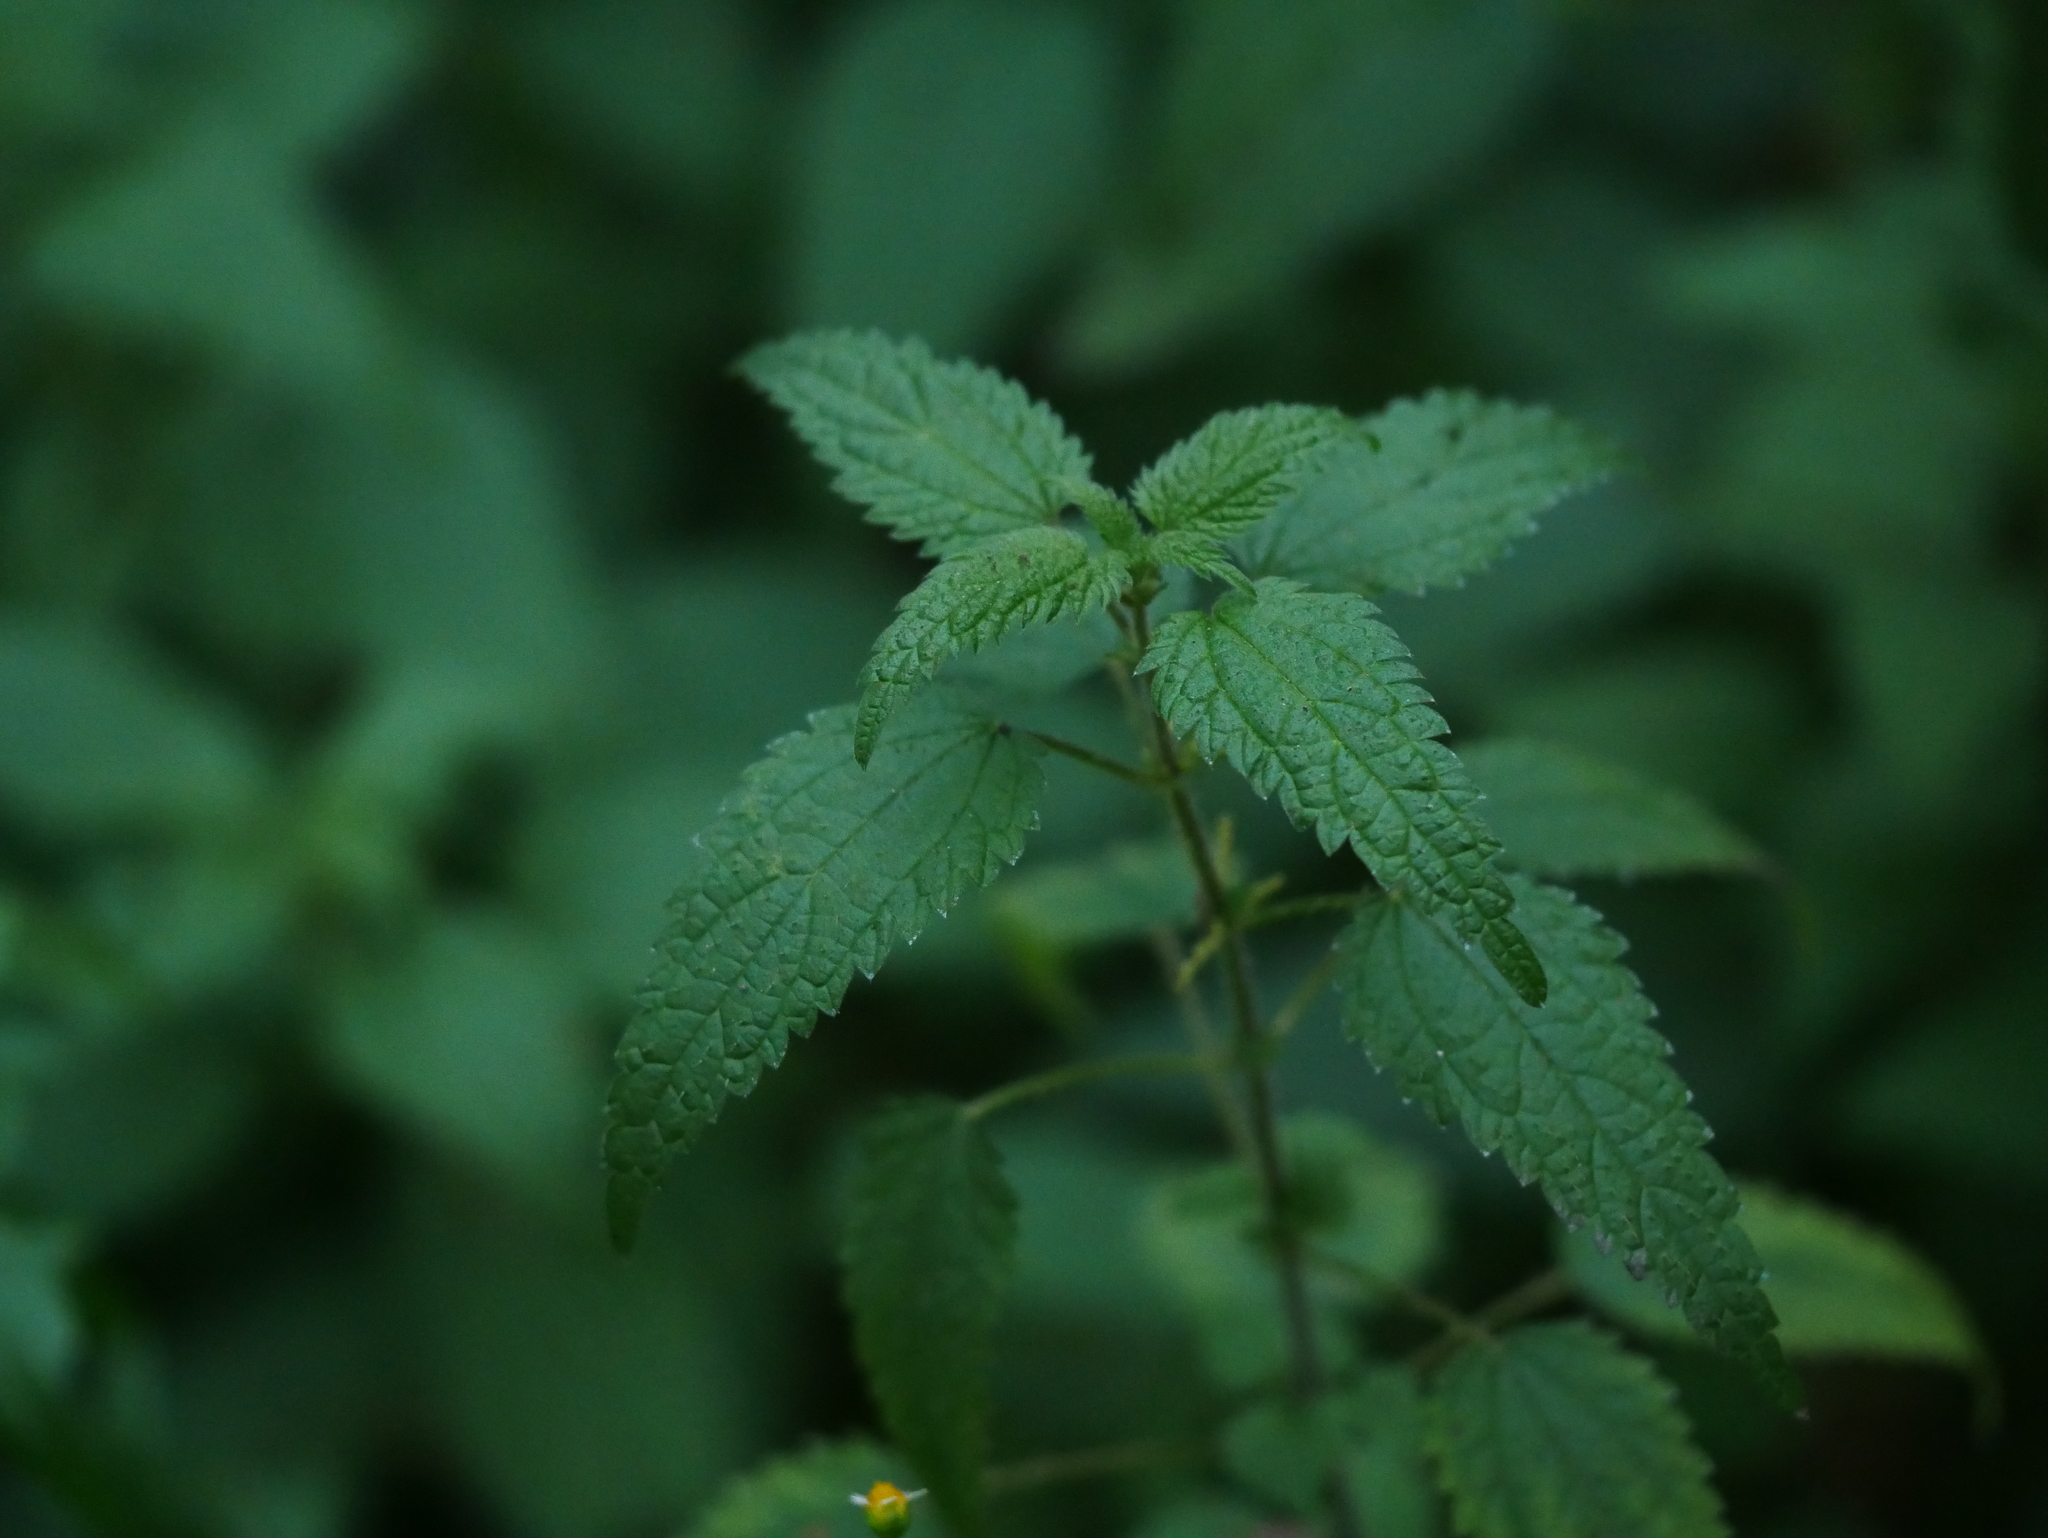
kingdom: Plantae
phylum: Tracheophyta
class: Magnoliopsida
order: Rosales
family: Urticaceae
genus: Urtica
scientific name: Urtica dioica
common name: Common nettle
